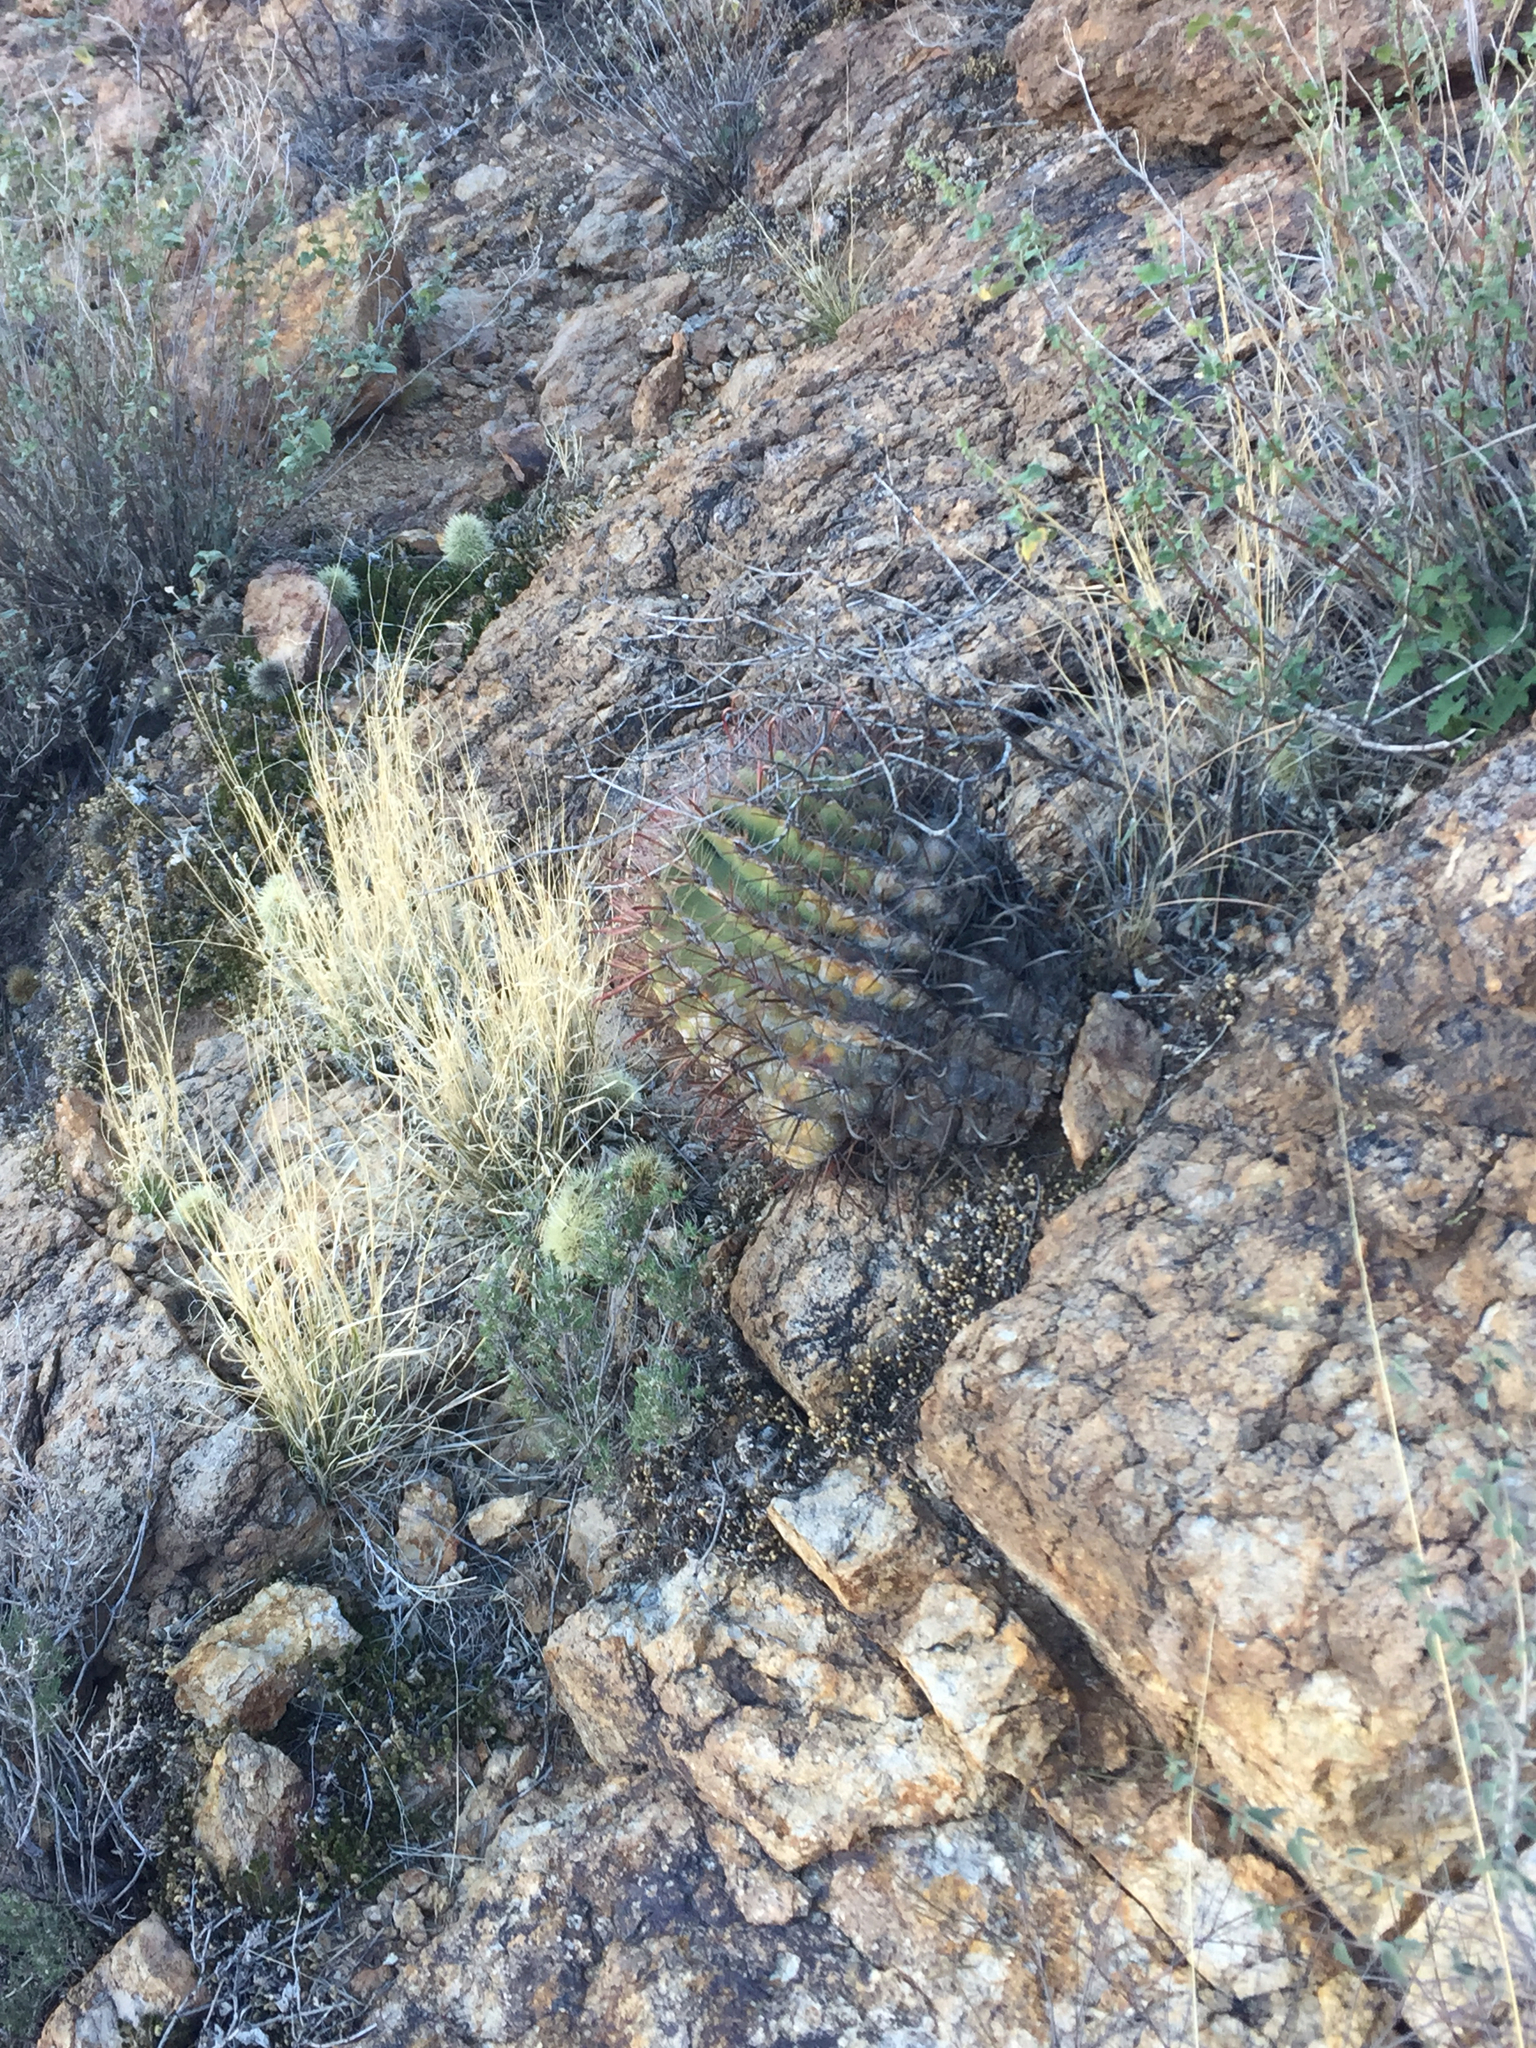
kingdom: Plantae
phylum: Tracheophyta
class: Magnoliopsida
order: Caryophyllales
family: Cactaceae
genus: Ferocactus
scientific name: Ferocactus wislizeni
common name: Candy barrel cactus
